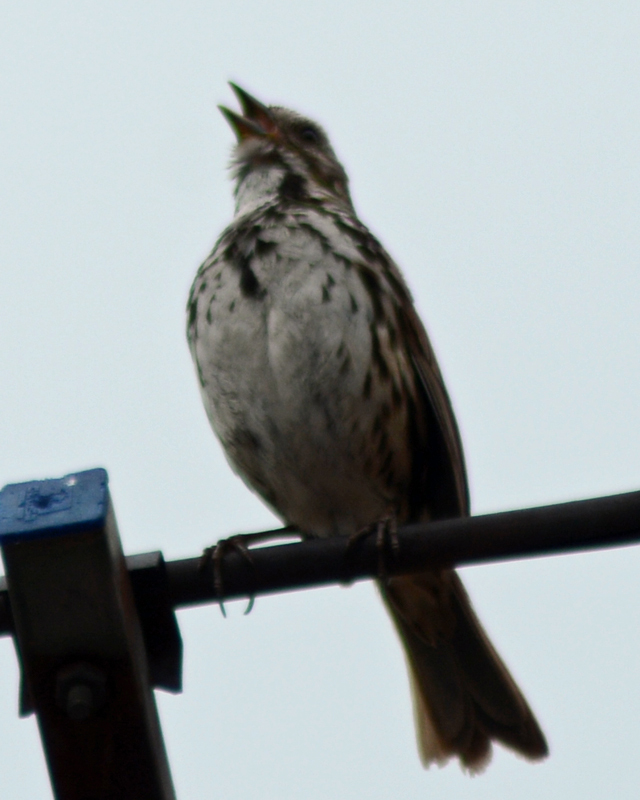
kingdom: Animalia
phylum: Chordata
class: Aves
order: Passeriformes
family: Passerellidae
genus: Melospiza
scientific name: Melospiza melodia
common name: Song sparrow
